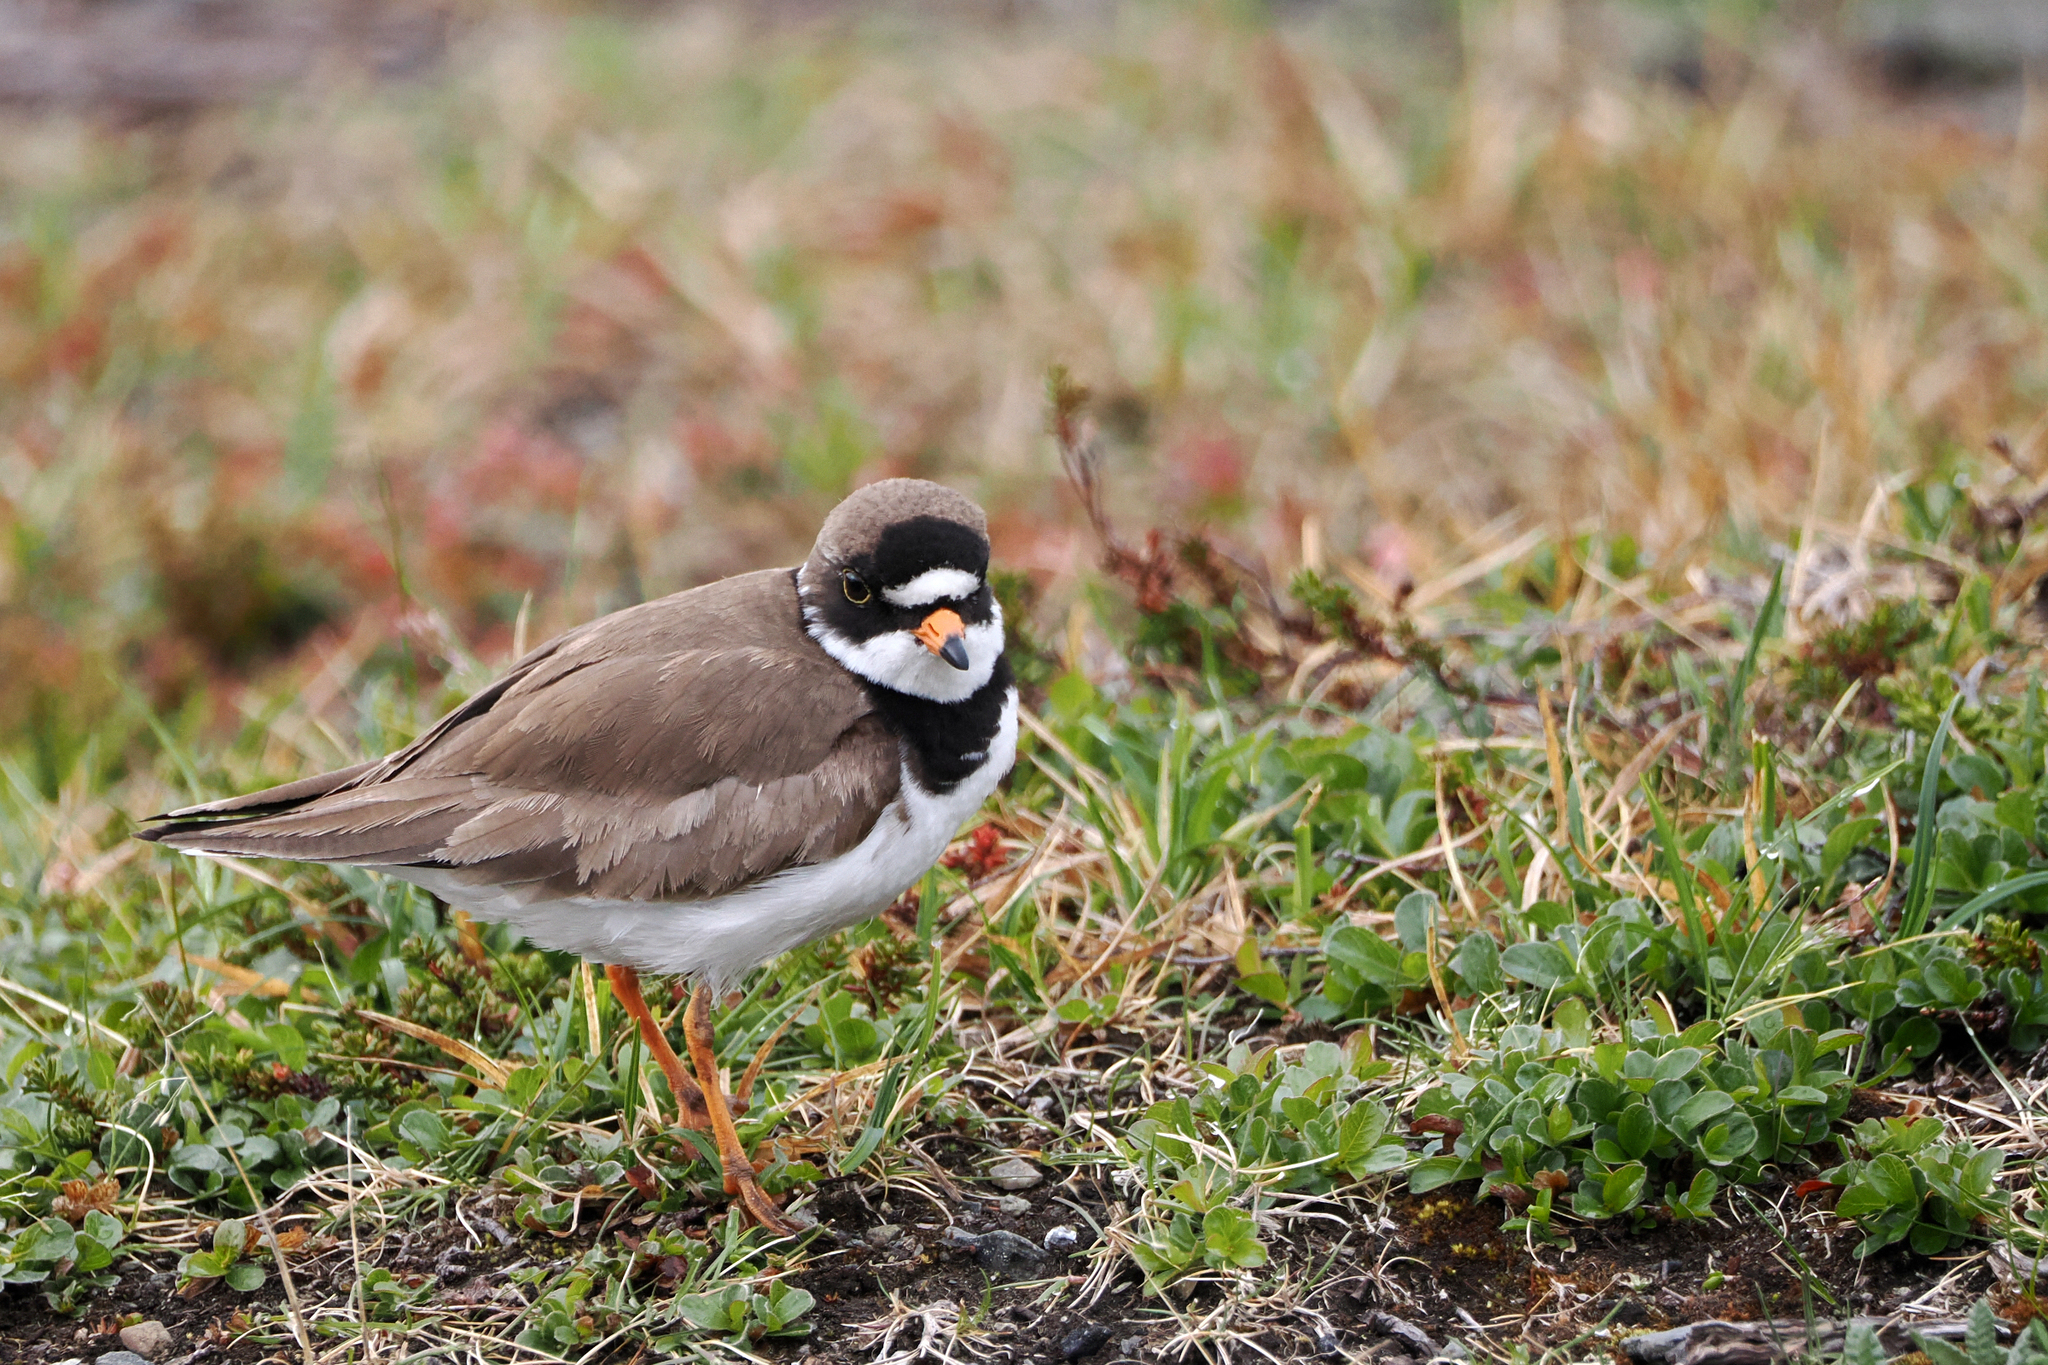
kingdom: Animalia
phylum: Chordata
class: Aves
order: Charadriiformes
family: Charadriidae
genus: Charadrius
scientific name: Charadrius semipalmatus
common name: Semipalmated plover
